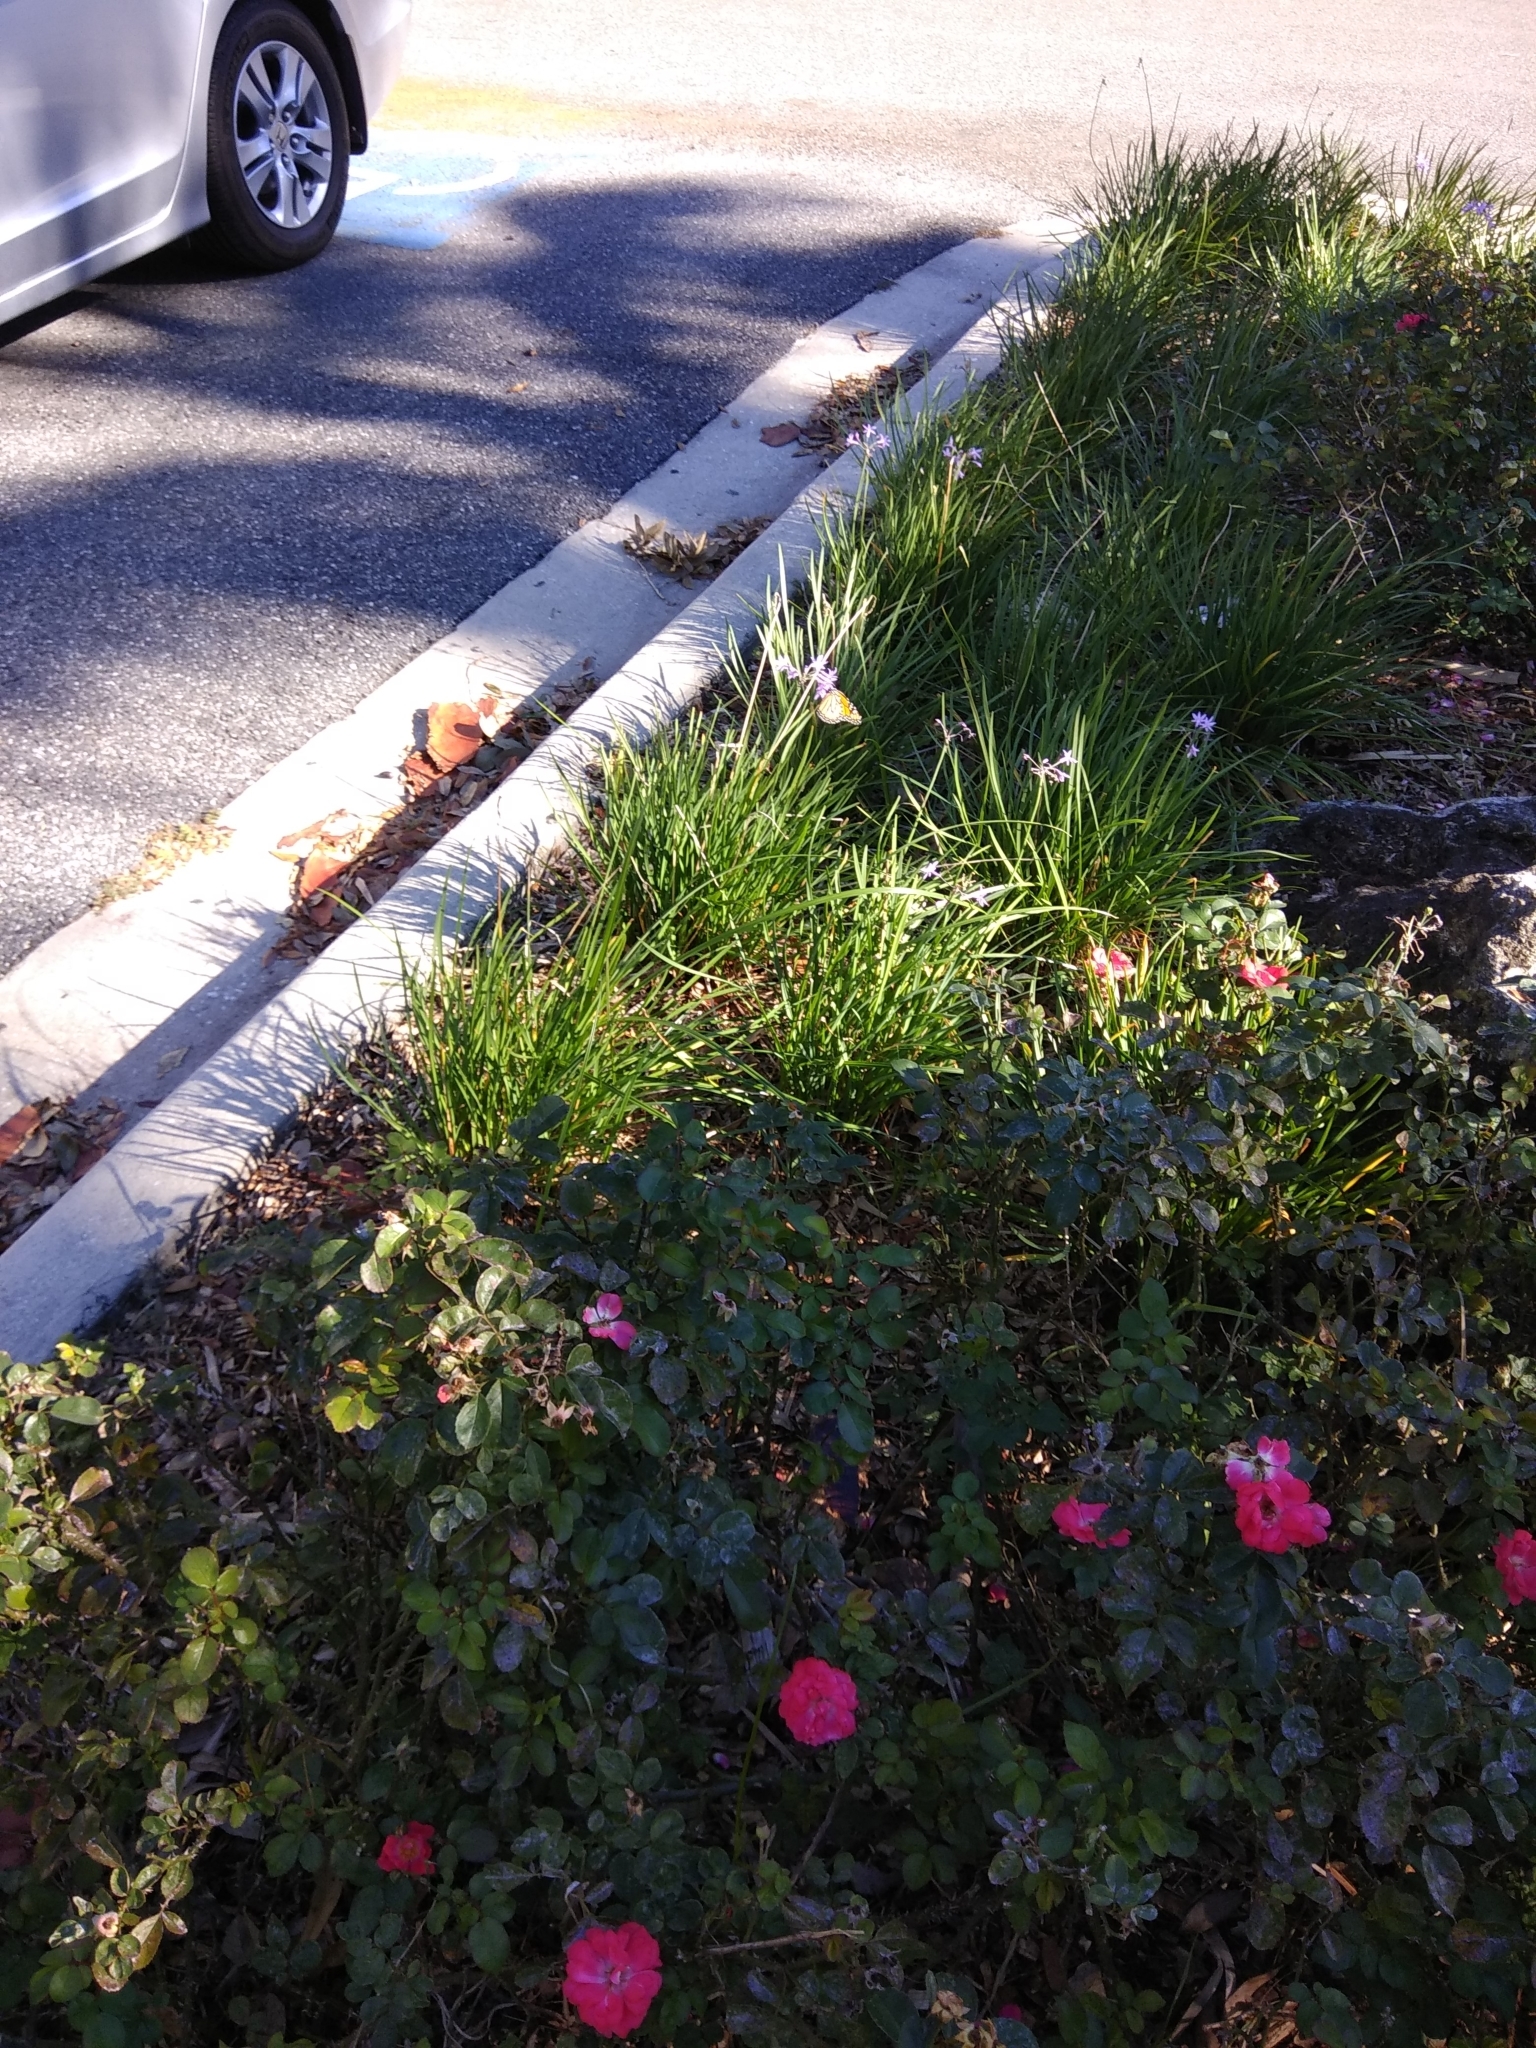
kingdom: Animalia
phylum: Arthropoda
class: Insecta
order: Lepidoptera
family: Nymphalidae
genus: Danaus
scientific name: Danaus plexippus
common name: Monarch
